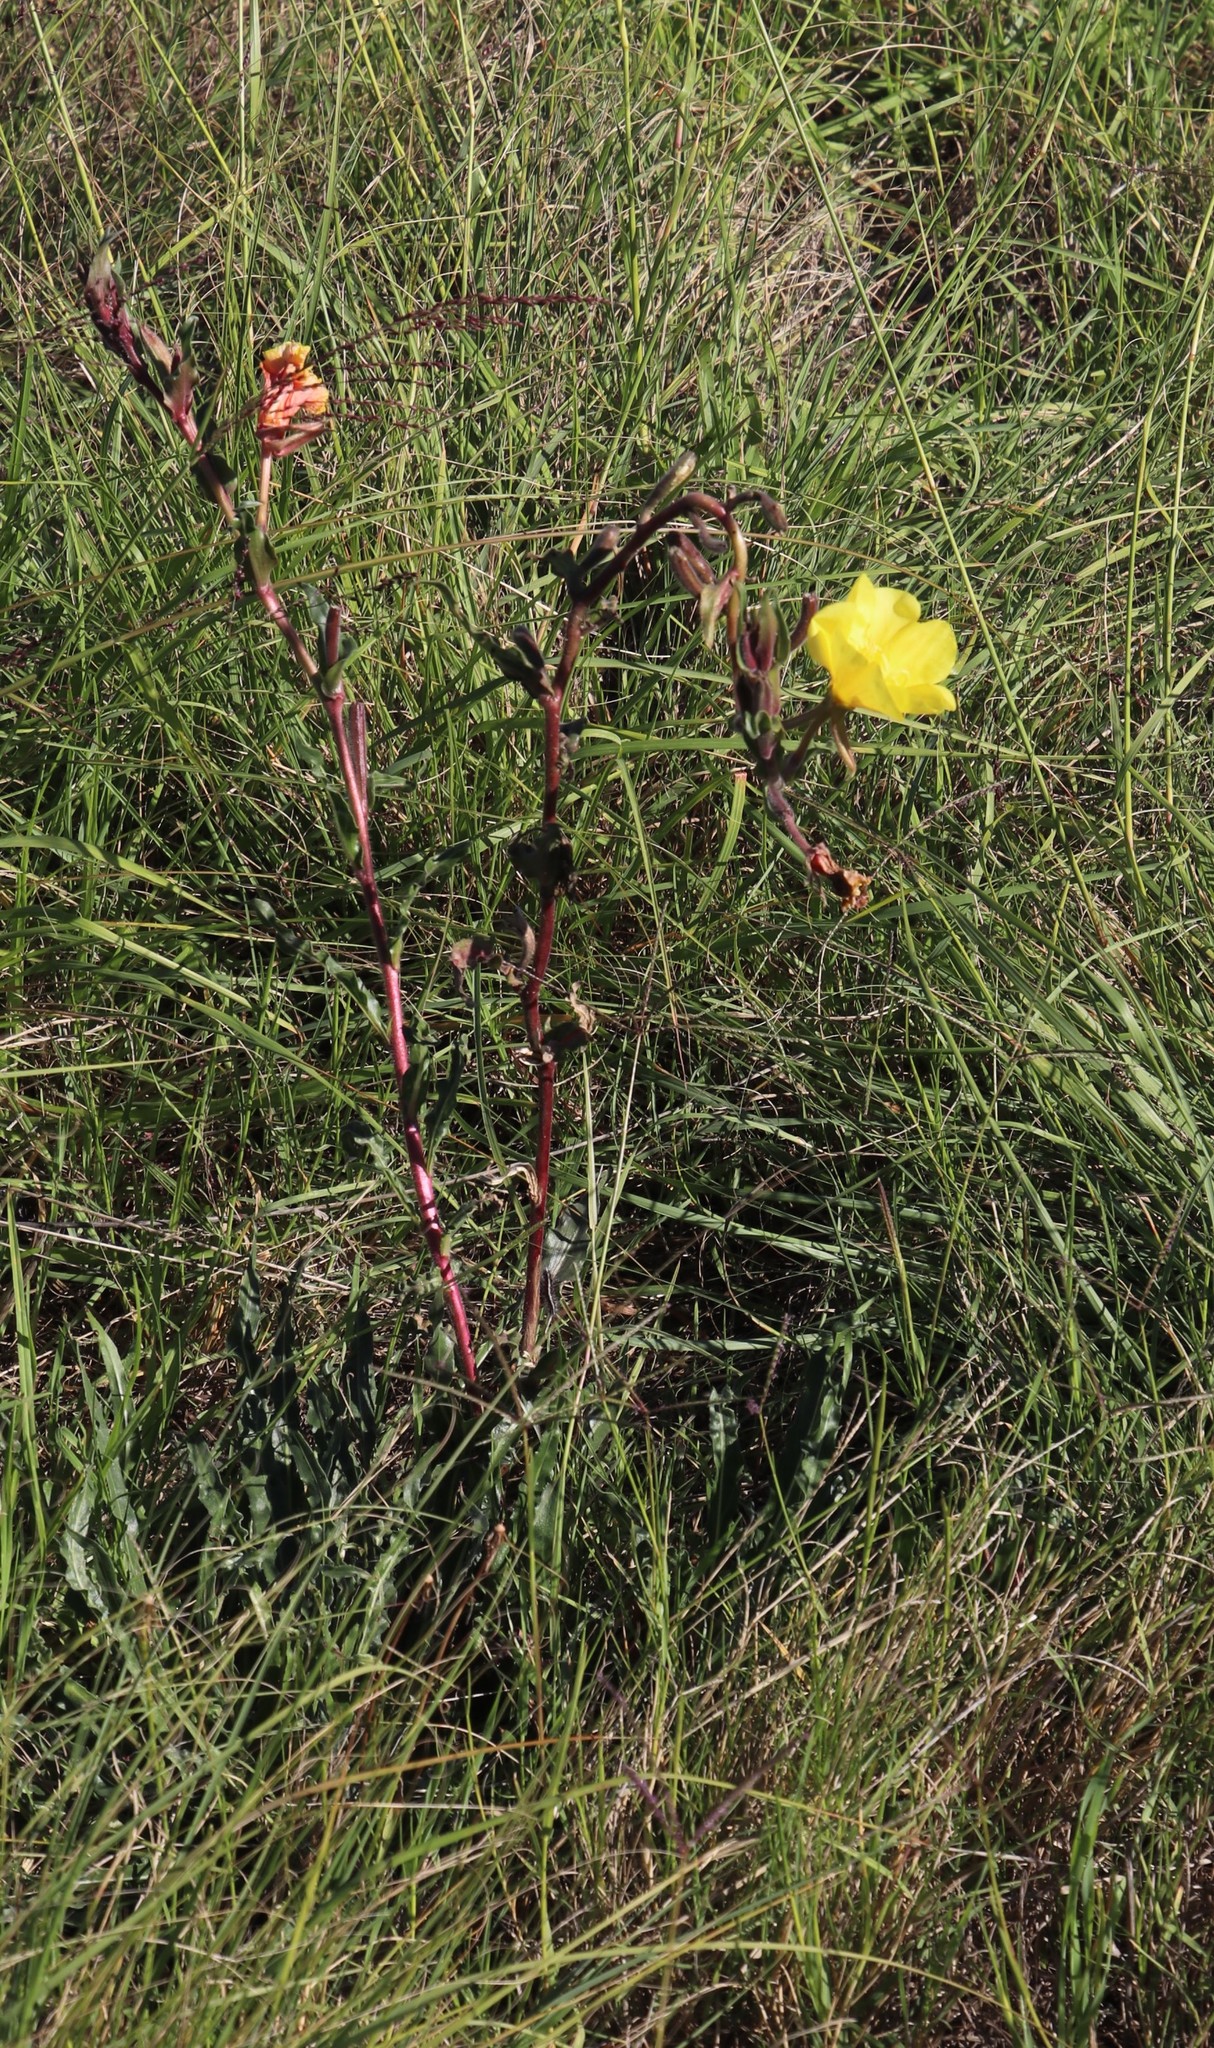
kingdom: Plantae
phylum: Tracheophyta
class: Magnoliopsida
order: Myrtales
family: Onagraceae
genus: Oenothera
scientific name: Oenothera indecora
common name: Small-flower evening-primrose
